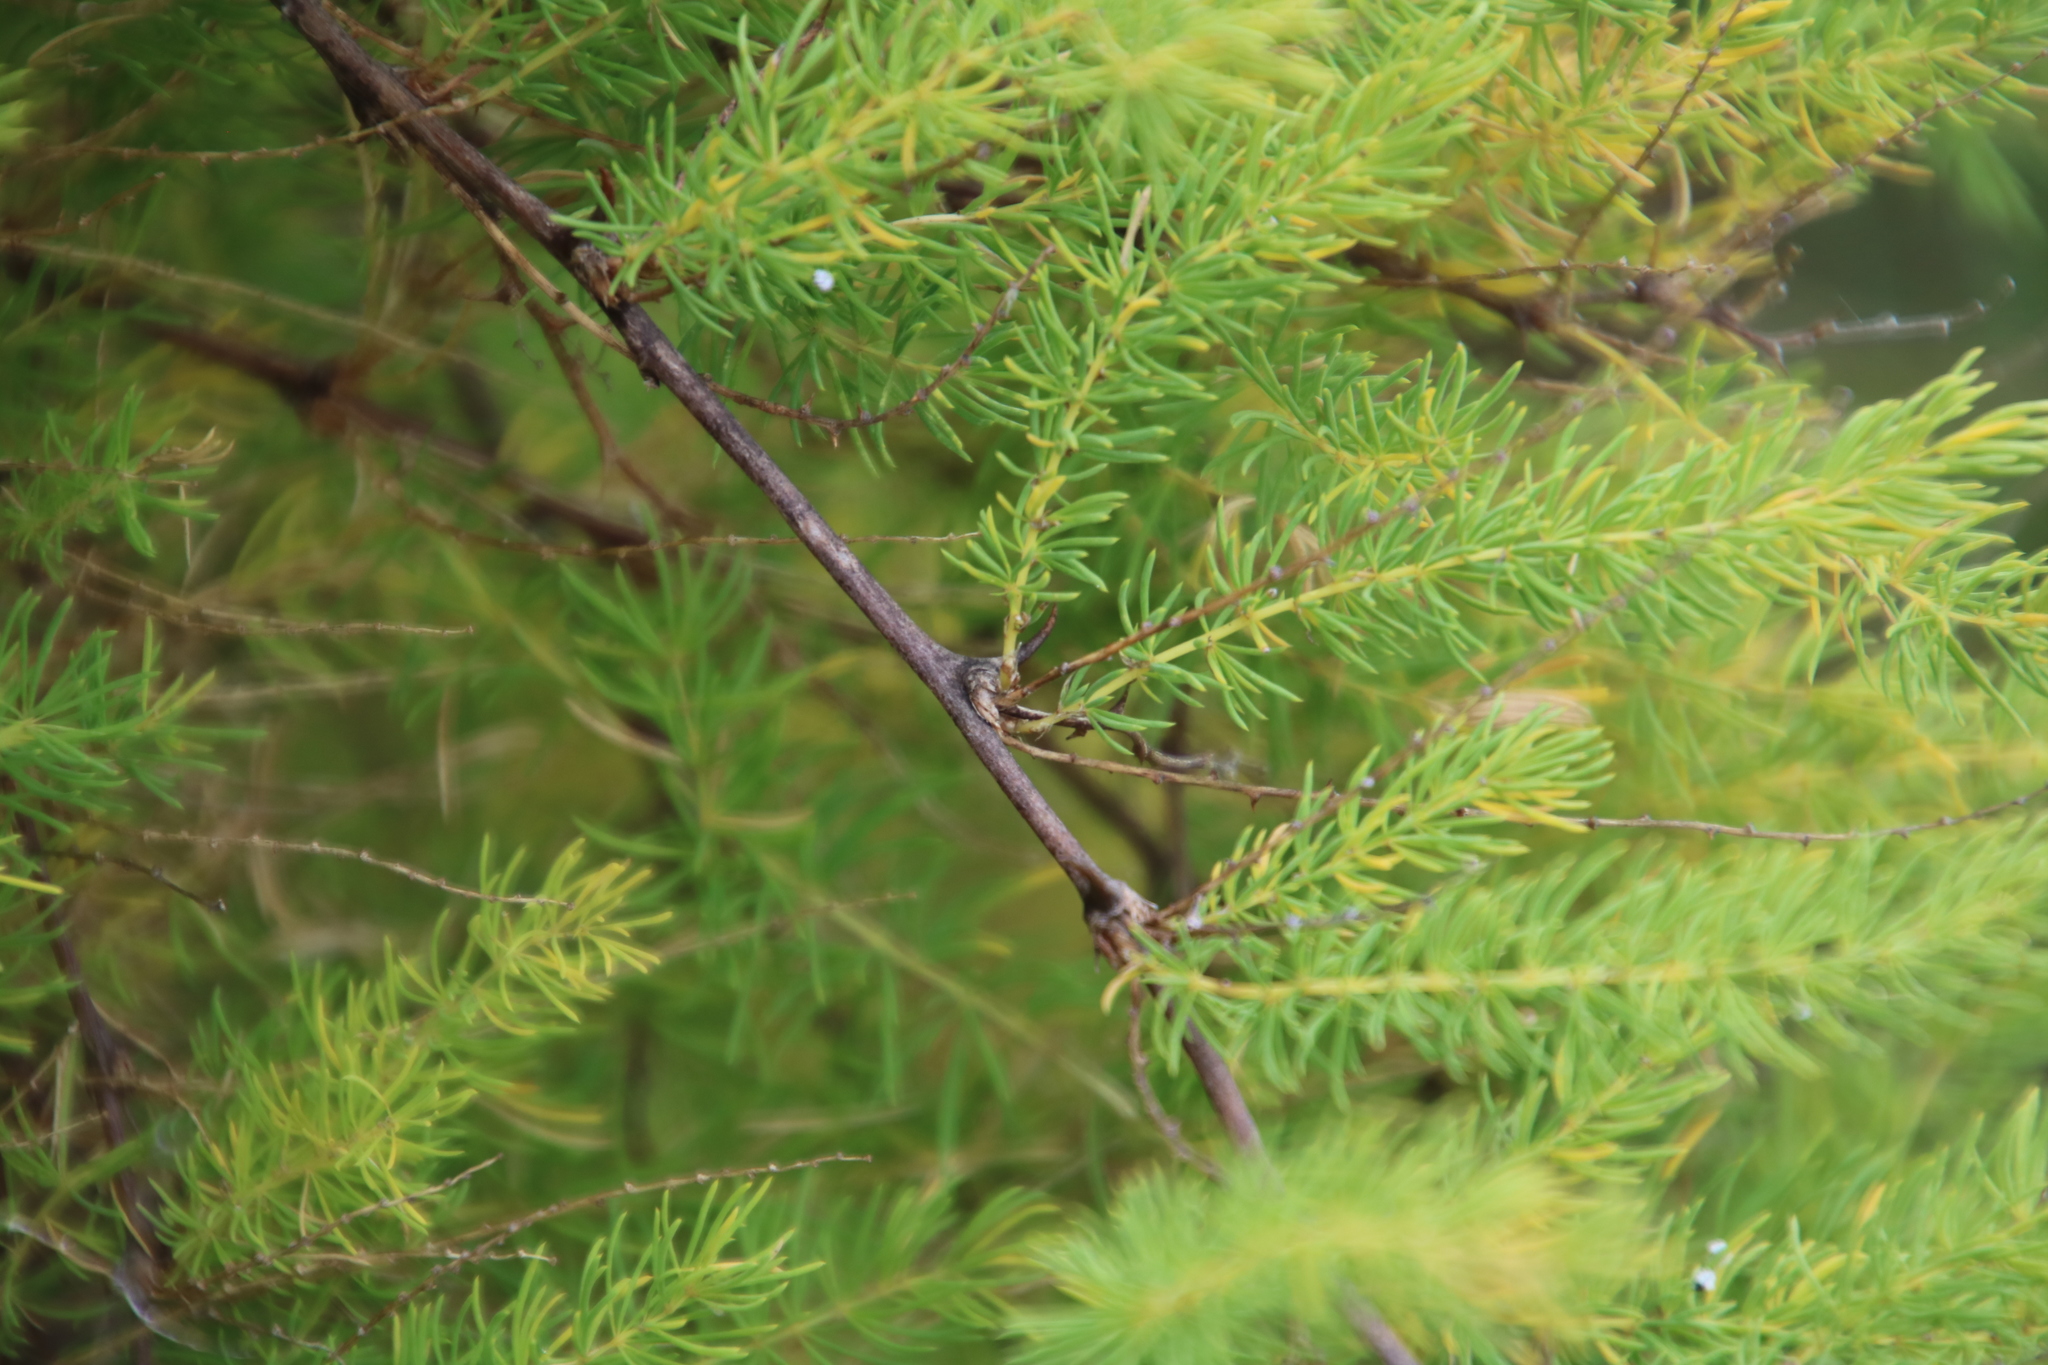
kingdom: Plantae
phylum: Tracheophyta
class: Liliopsida
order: Asparagales
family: Asparagaceae
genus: Asparagus
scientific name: Asparagus rubicundus
